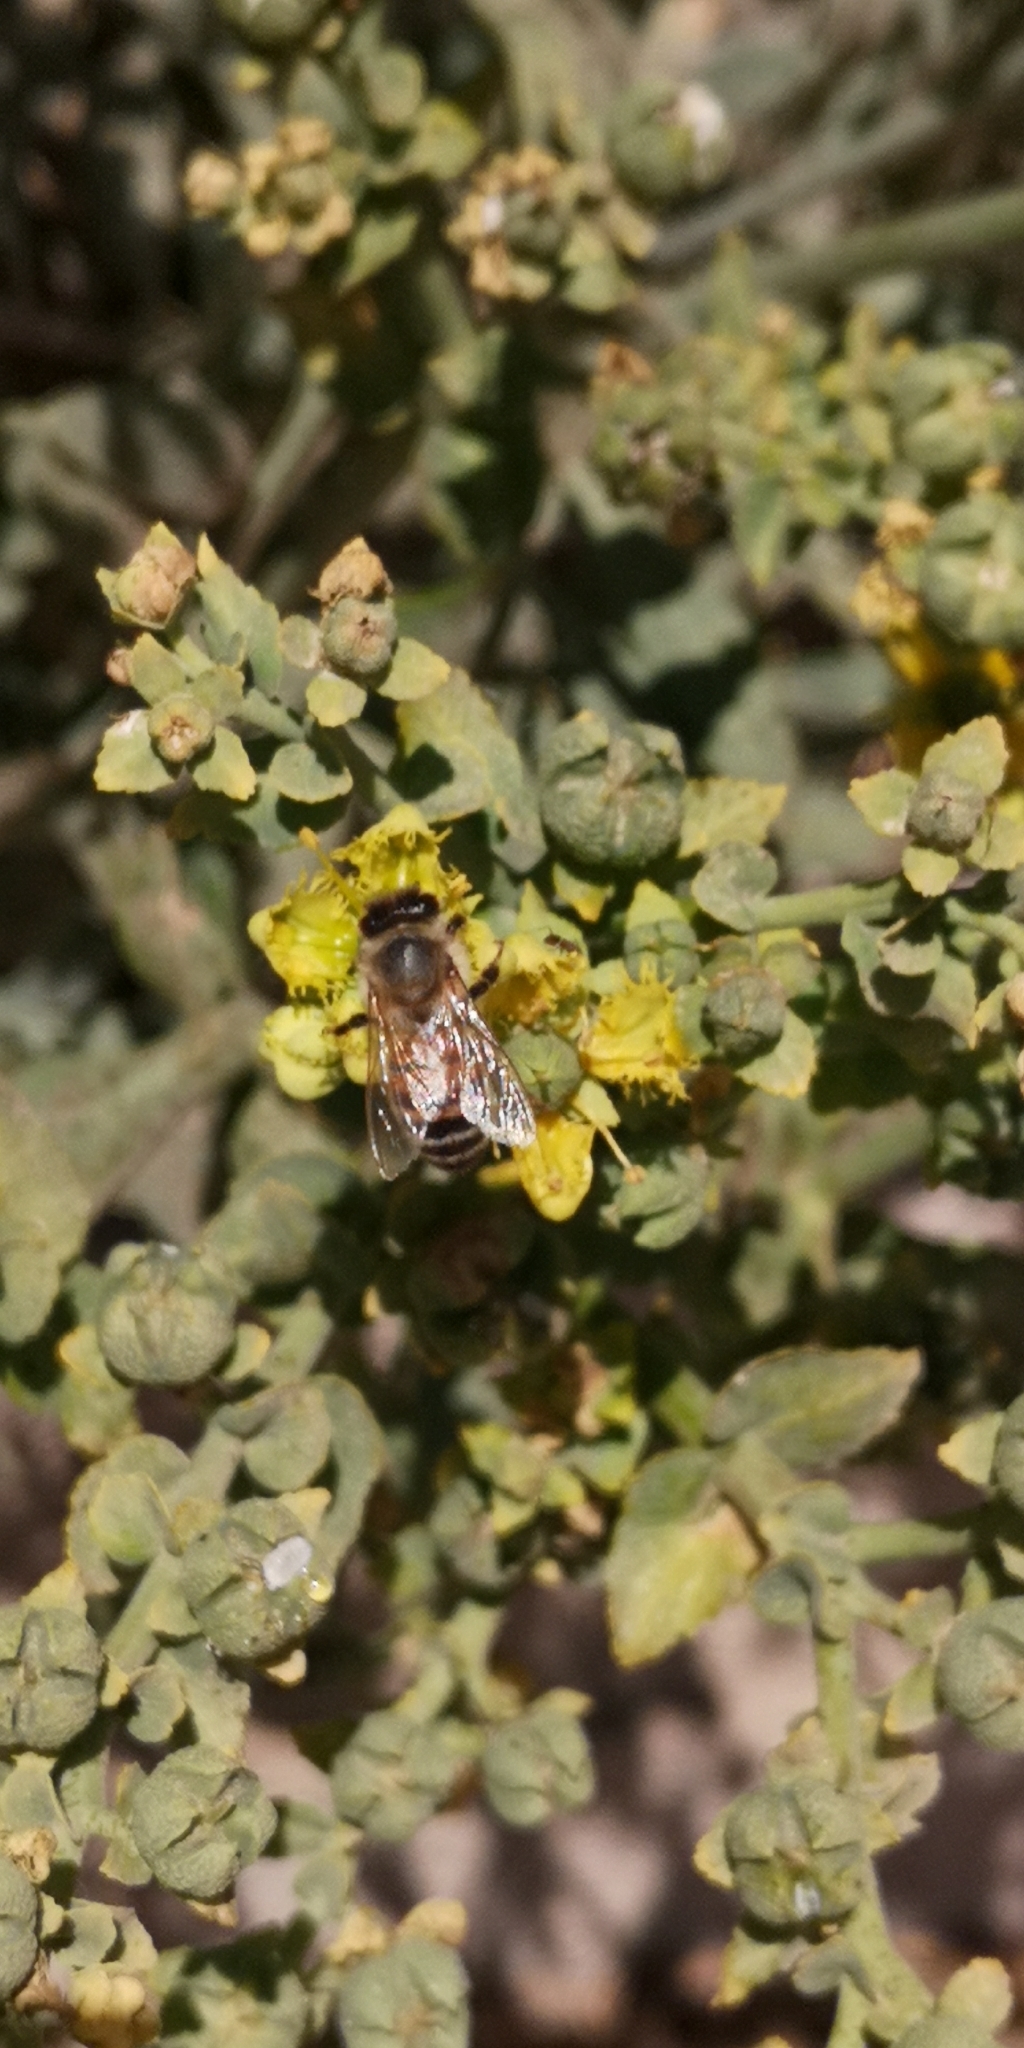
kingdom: Animalia
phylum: Arthropoda
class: Insecta
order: Hymenoptera
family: Apidae
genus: Apis
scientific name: Apis mellifera
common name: Honey bee
